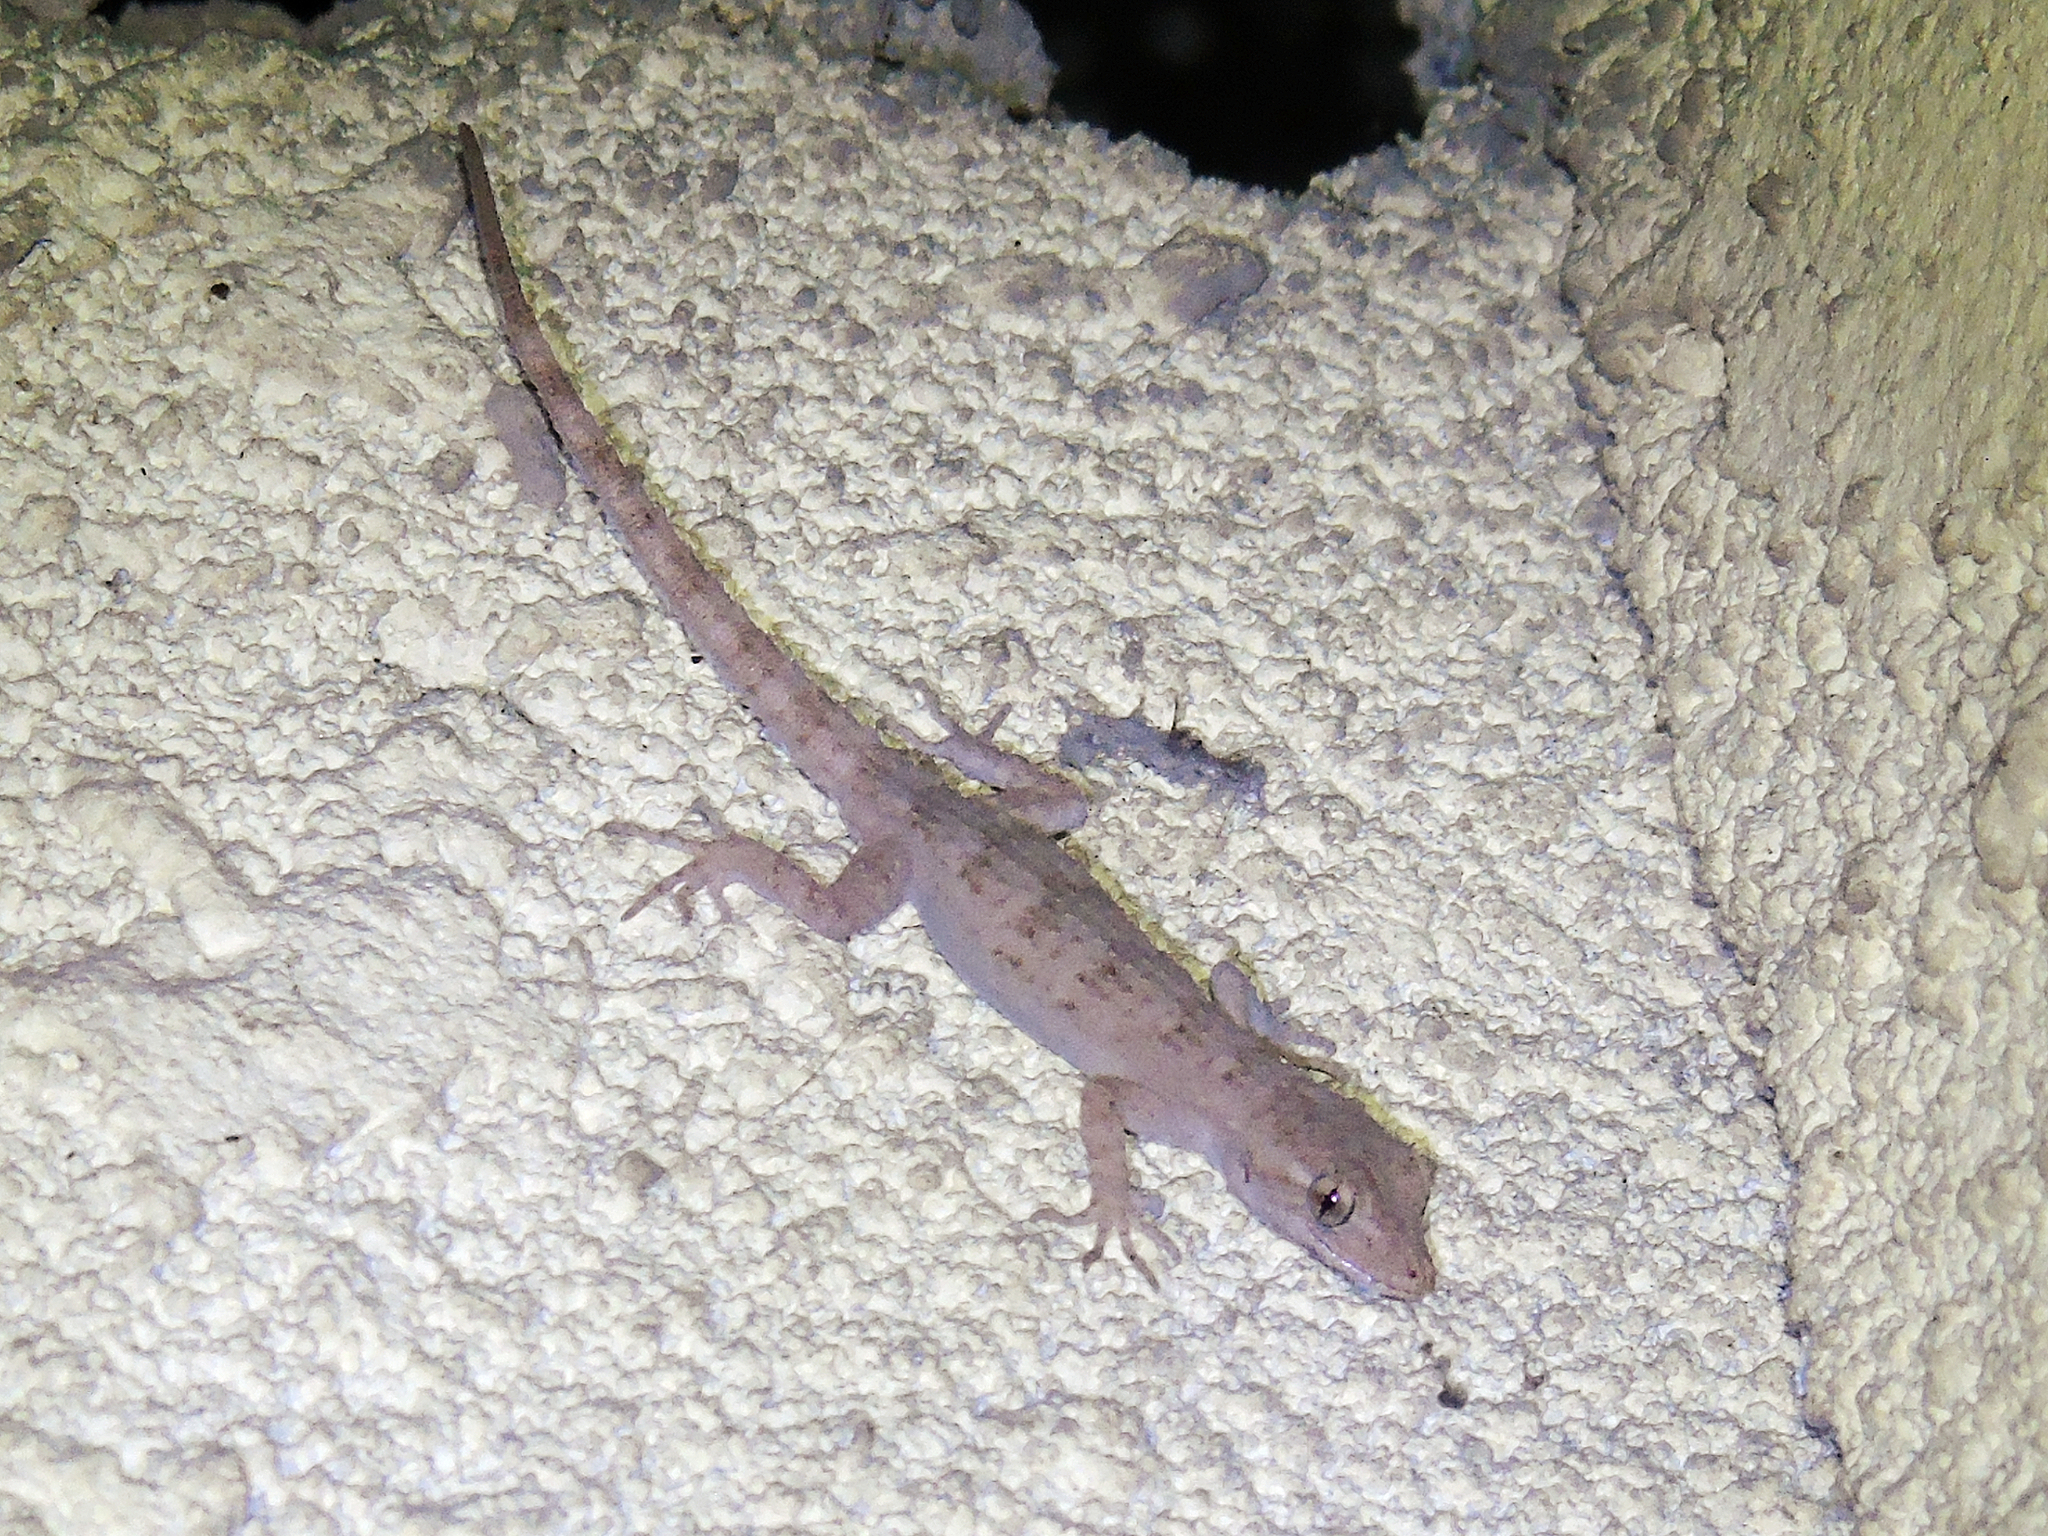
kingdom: Animalia
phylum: Chordata
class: Squamata
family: Gekkonidae
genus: Mediodactylus
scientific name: Mediodactylus russowii
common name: Grey thin-toed gecko
